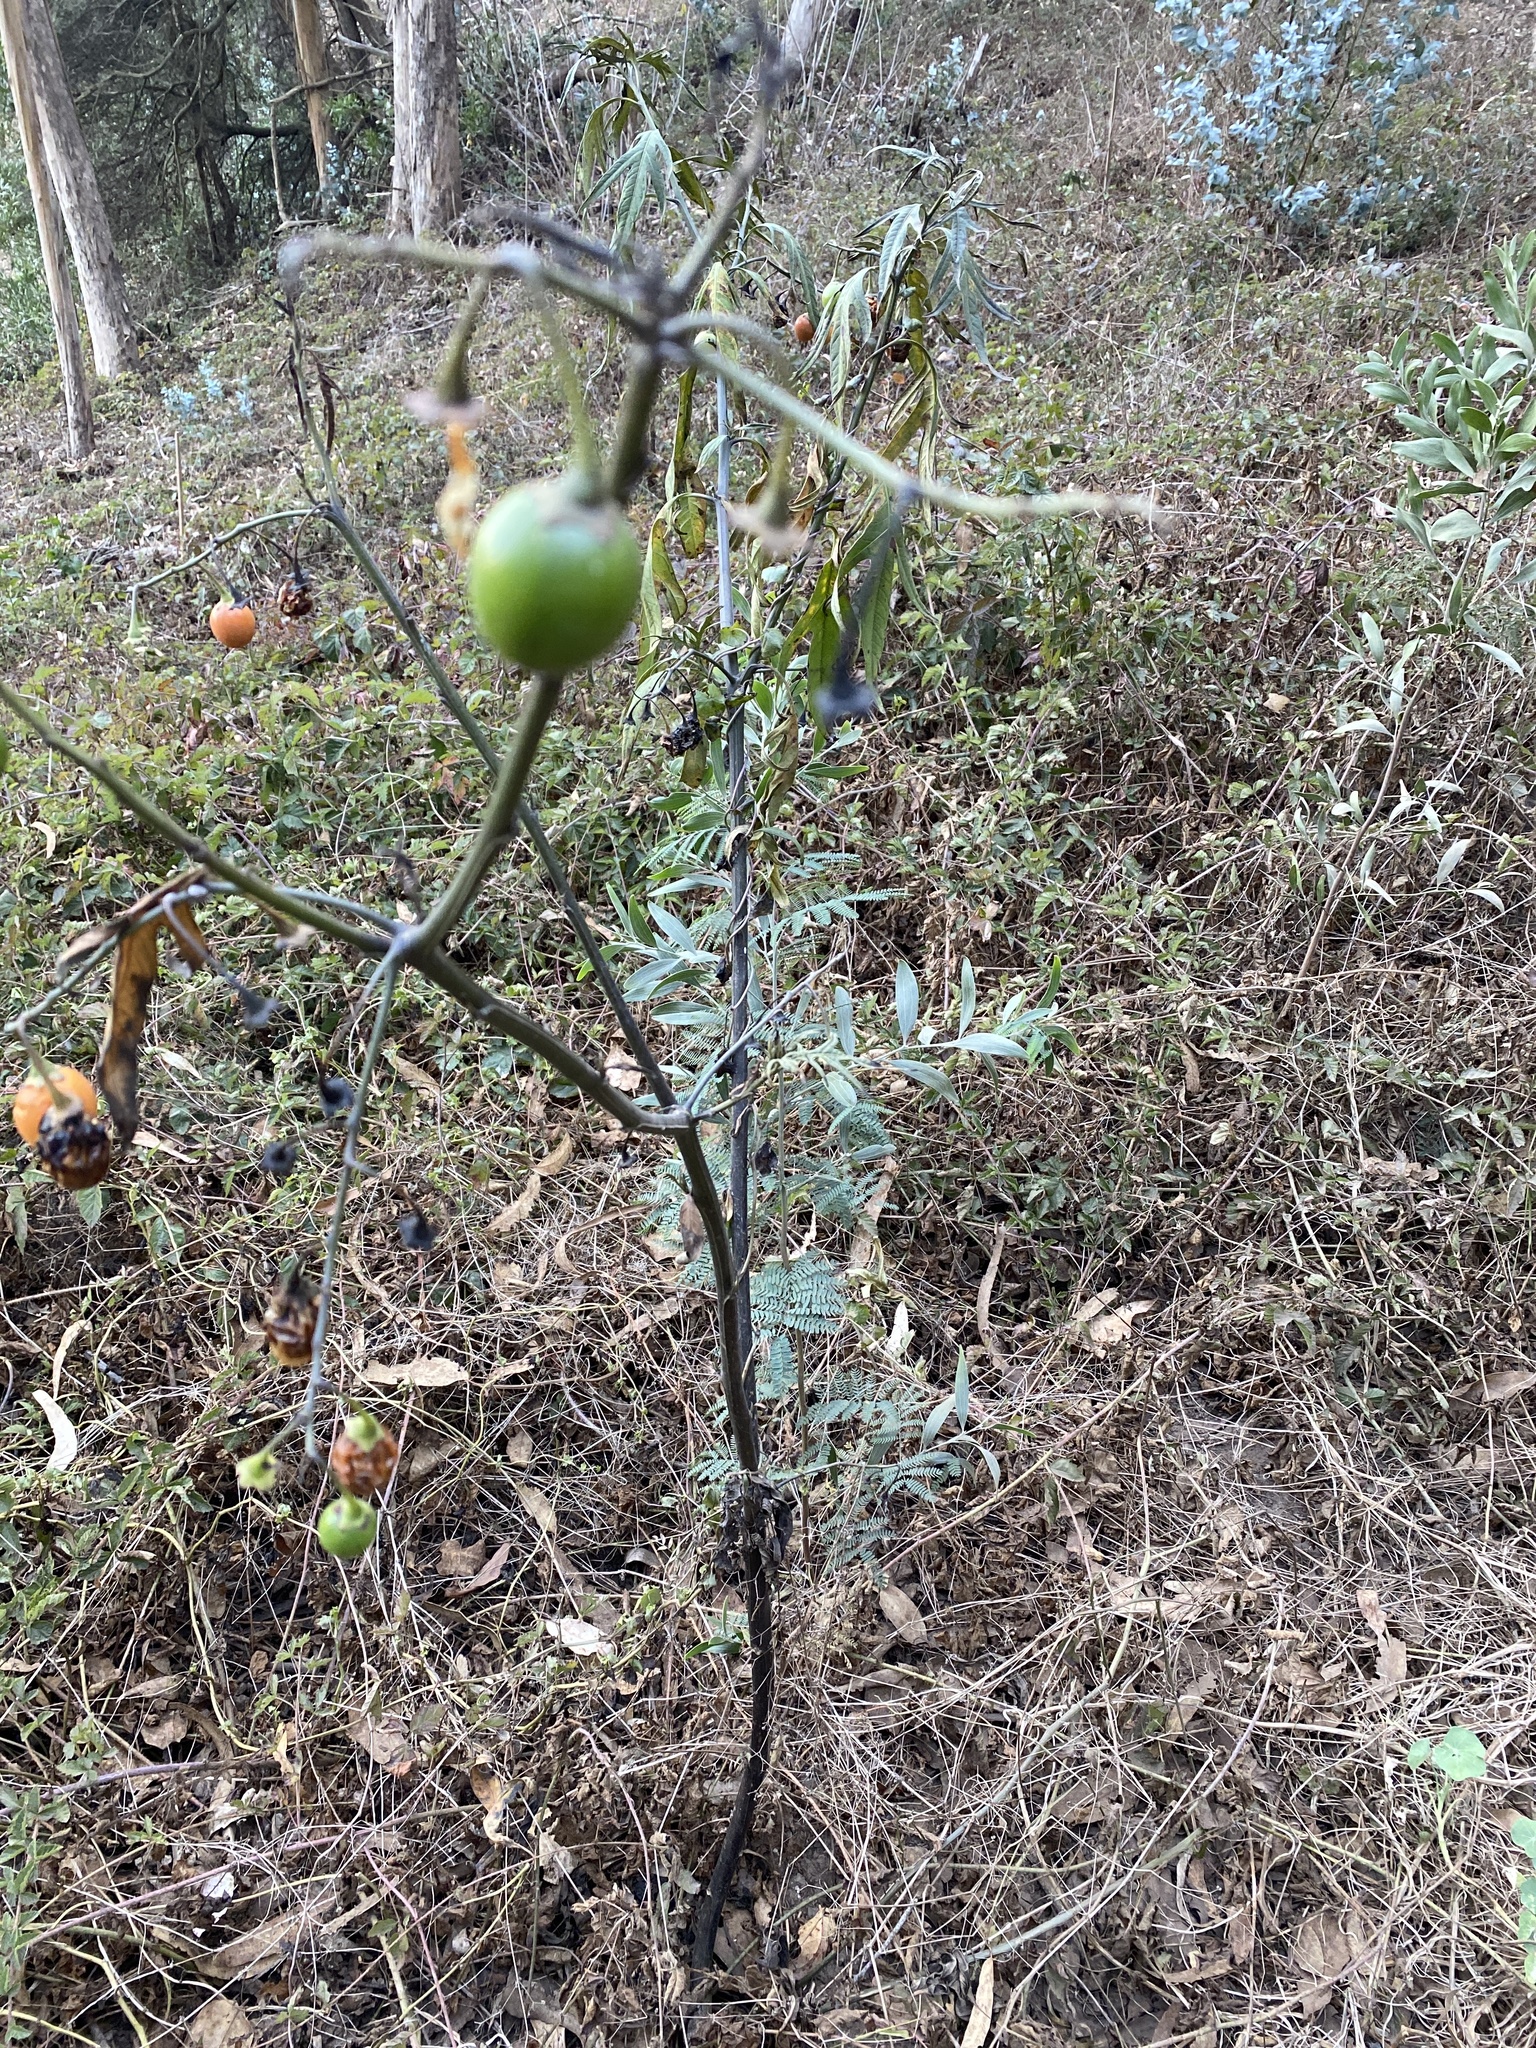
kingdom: Plantae
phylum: Tracheophyta
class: Magnoliopsida
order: Solanales
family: Solanaceae
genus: Solanum
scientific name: Solanum laciniatum
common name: Kangaroo-apple
